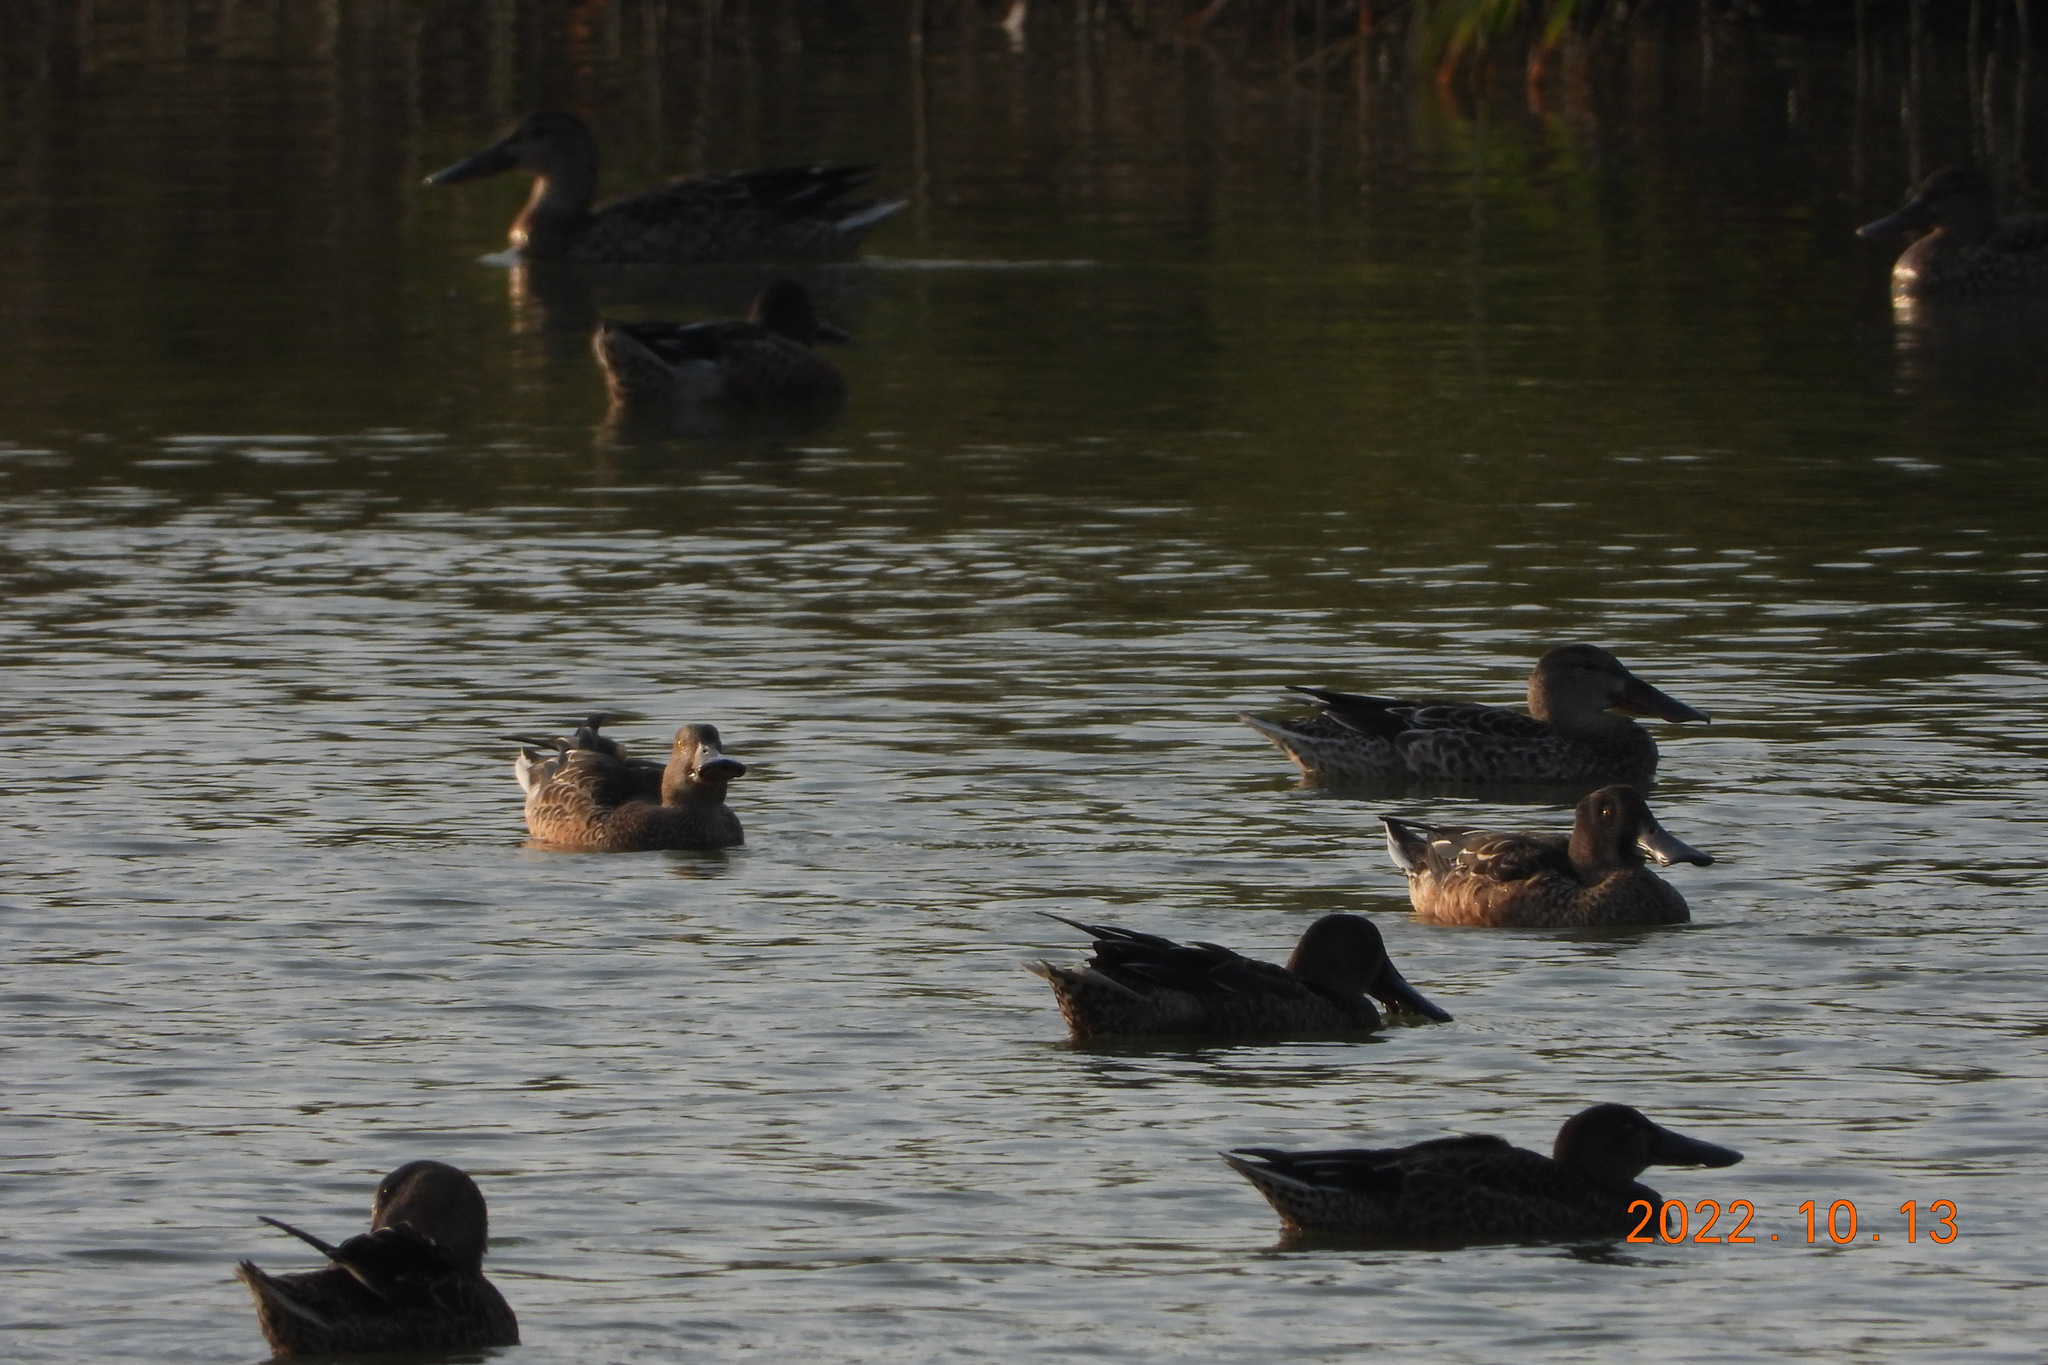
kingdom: Animalia
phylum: Chordata
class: Aves
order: Anseriformes
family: Anatidae
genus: Spatula
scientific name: Spatula clypeata
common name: Northern shoveler
